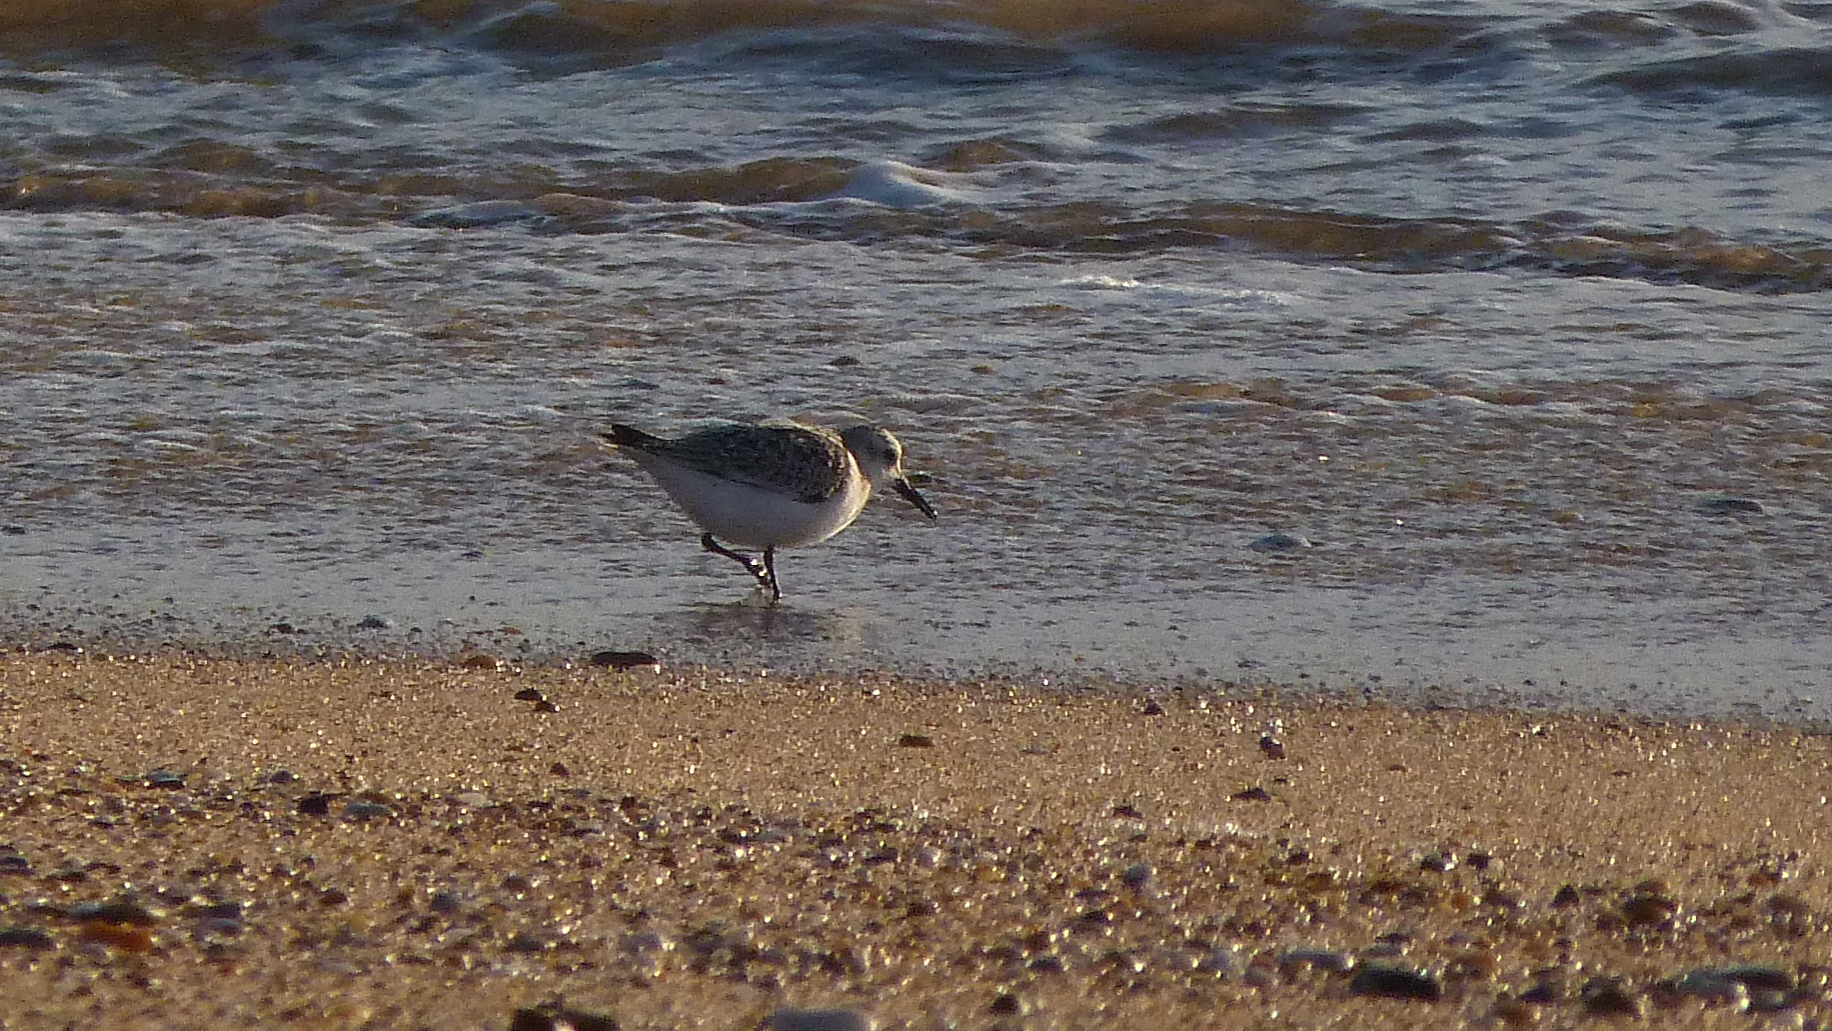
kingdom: Animalia
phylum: Chordata
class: Aves
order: Charadriiformes
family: Scolopacidae
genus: Calidris
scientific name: Calidris alba
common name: Sanderling
